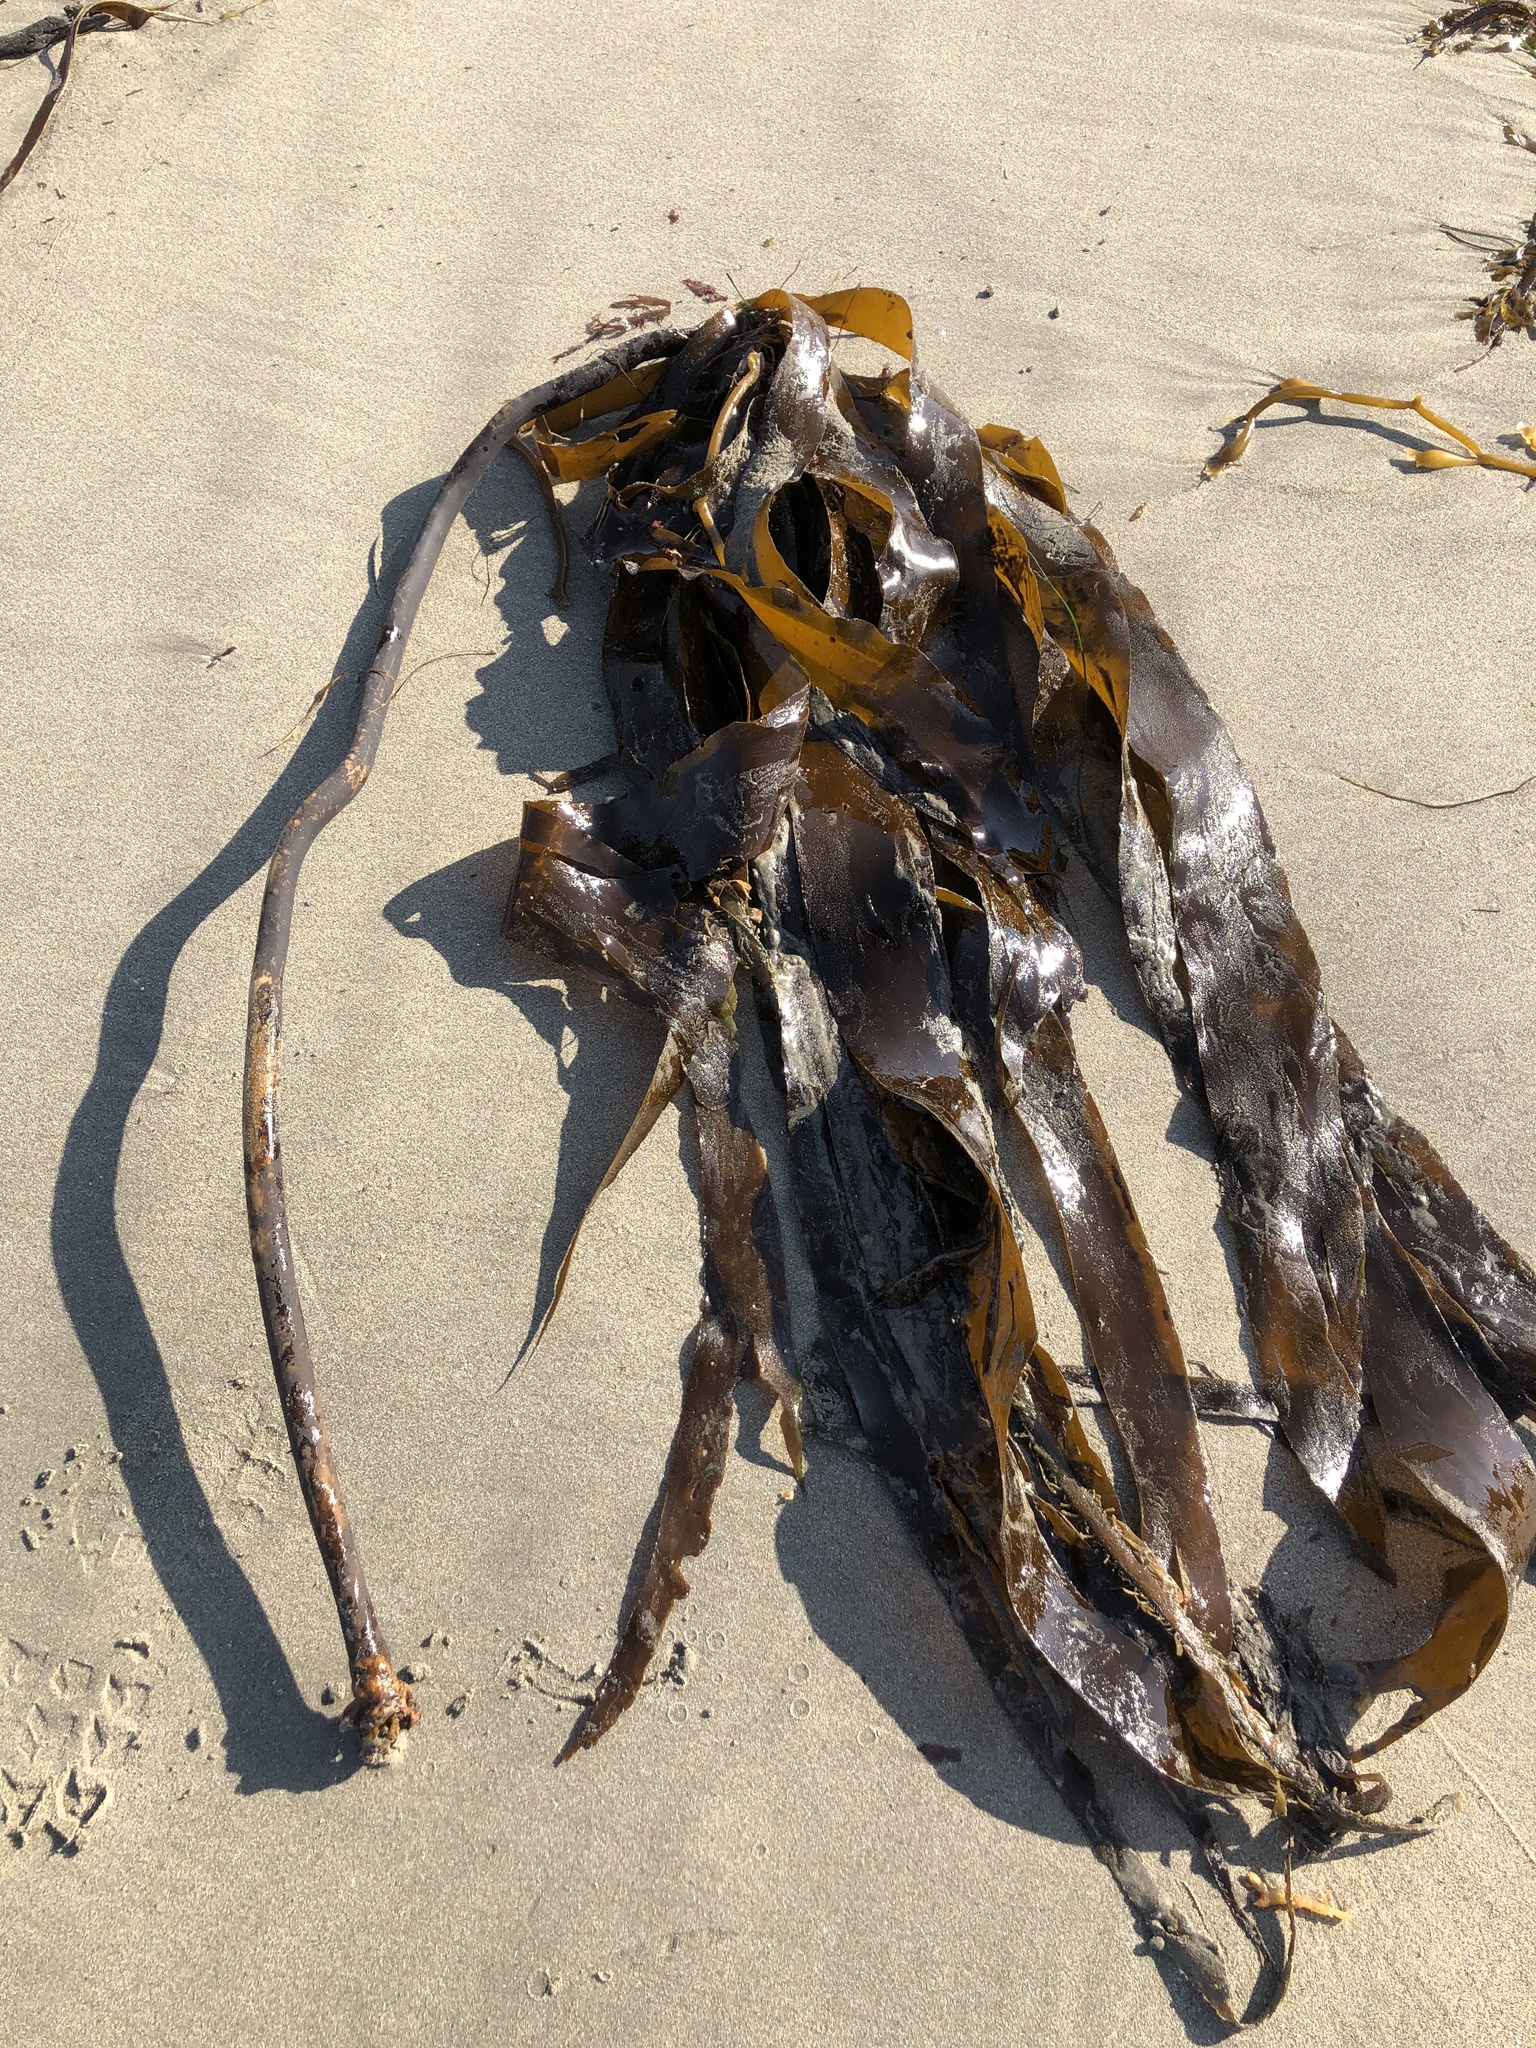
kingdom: Chromista
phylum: Ochrophyta
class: Phaeophyceae
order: Laminariales
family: Alariaceae
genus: Pterygophora
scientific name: Pterygophora californica
